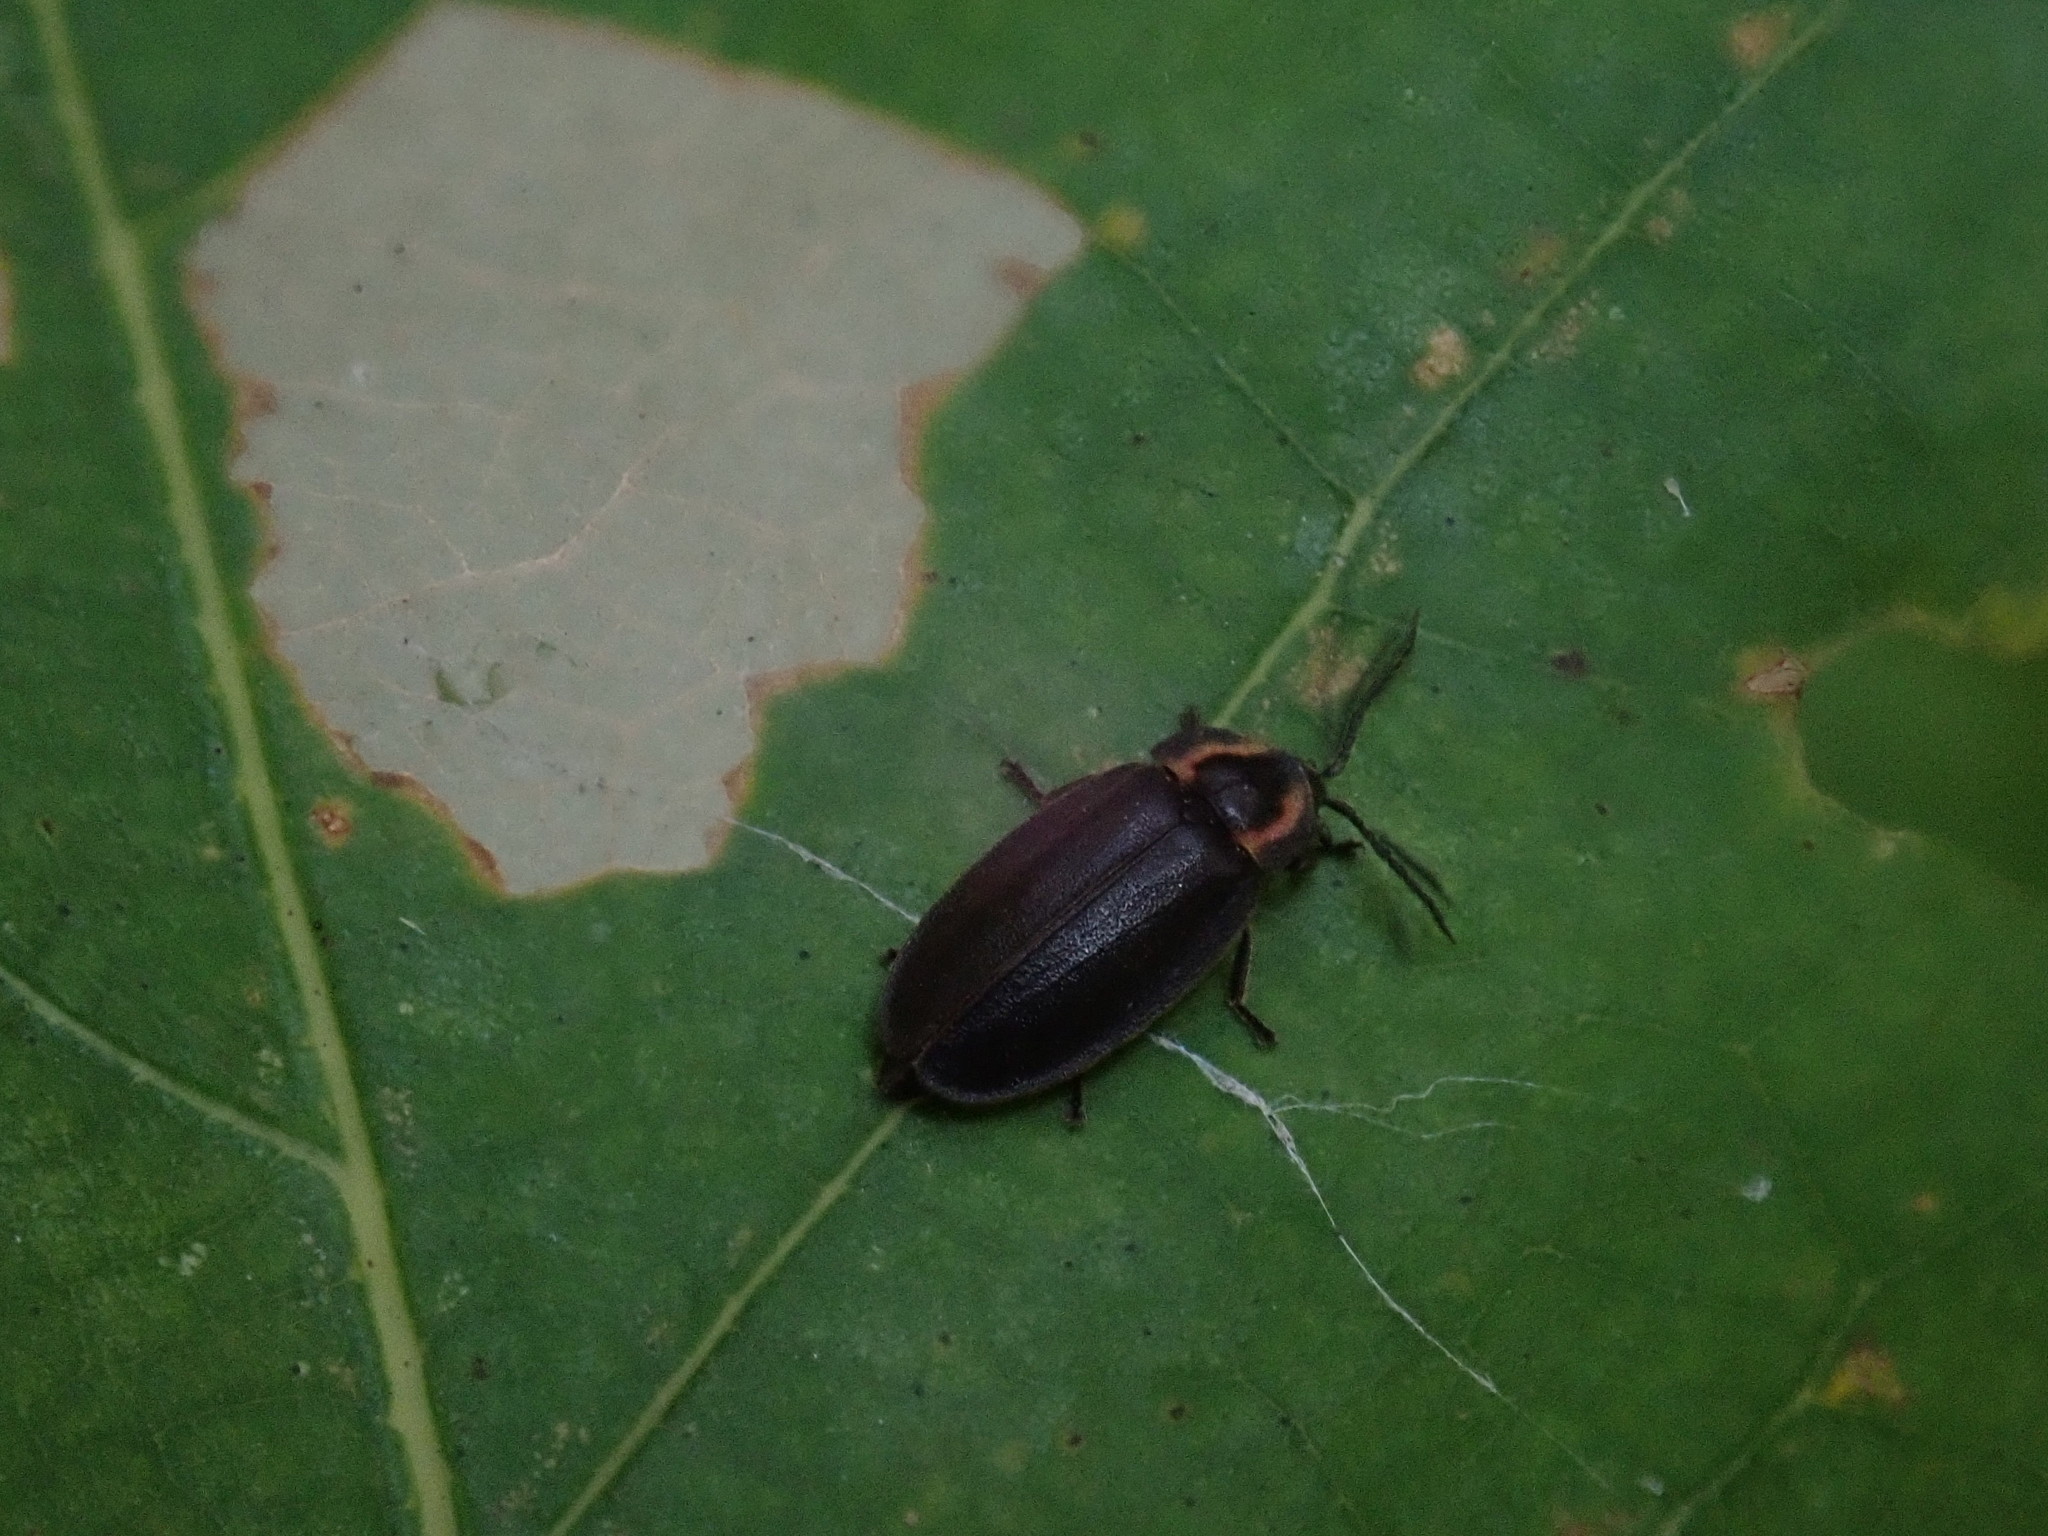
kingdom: Animalia
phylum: Arthropoda
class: Insecta
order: Coleoptera
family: Lampyridae
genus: Photinus
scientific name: Photinus corrusca
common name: Winter firefly
